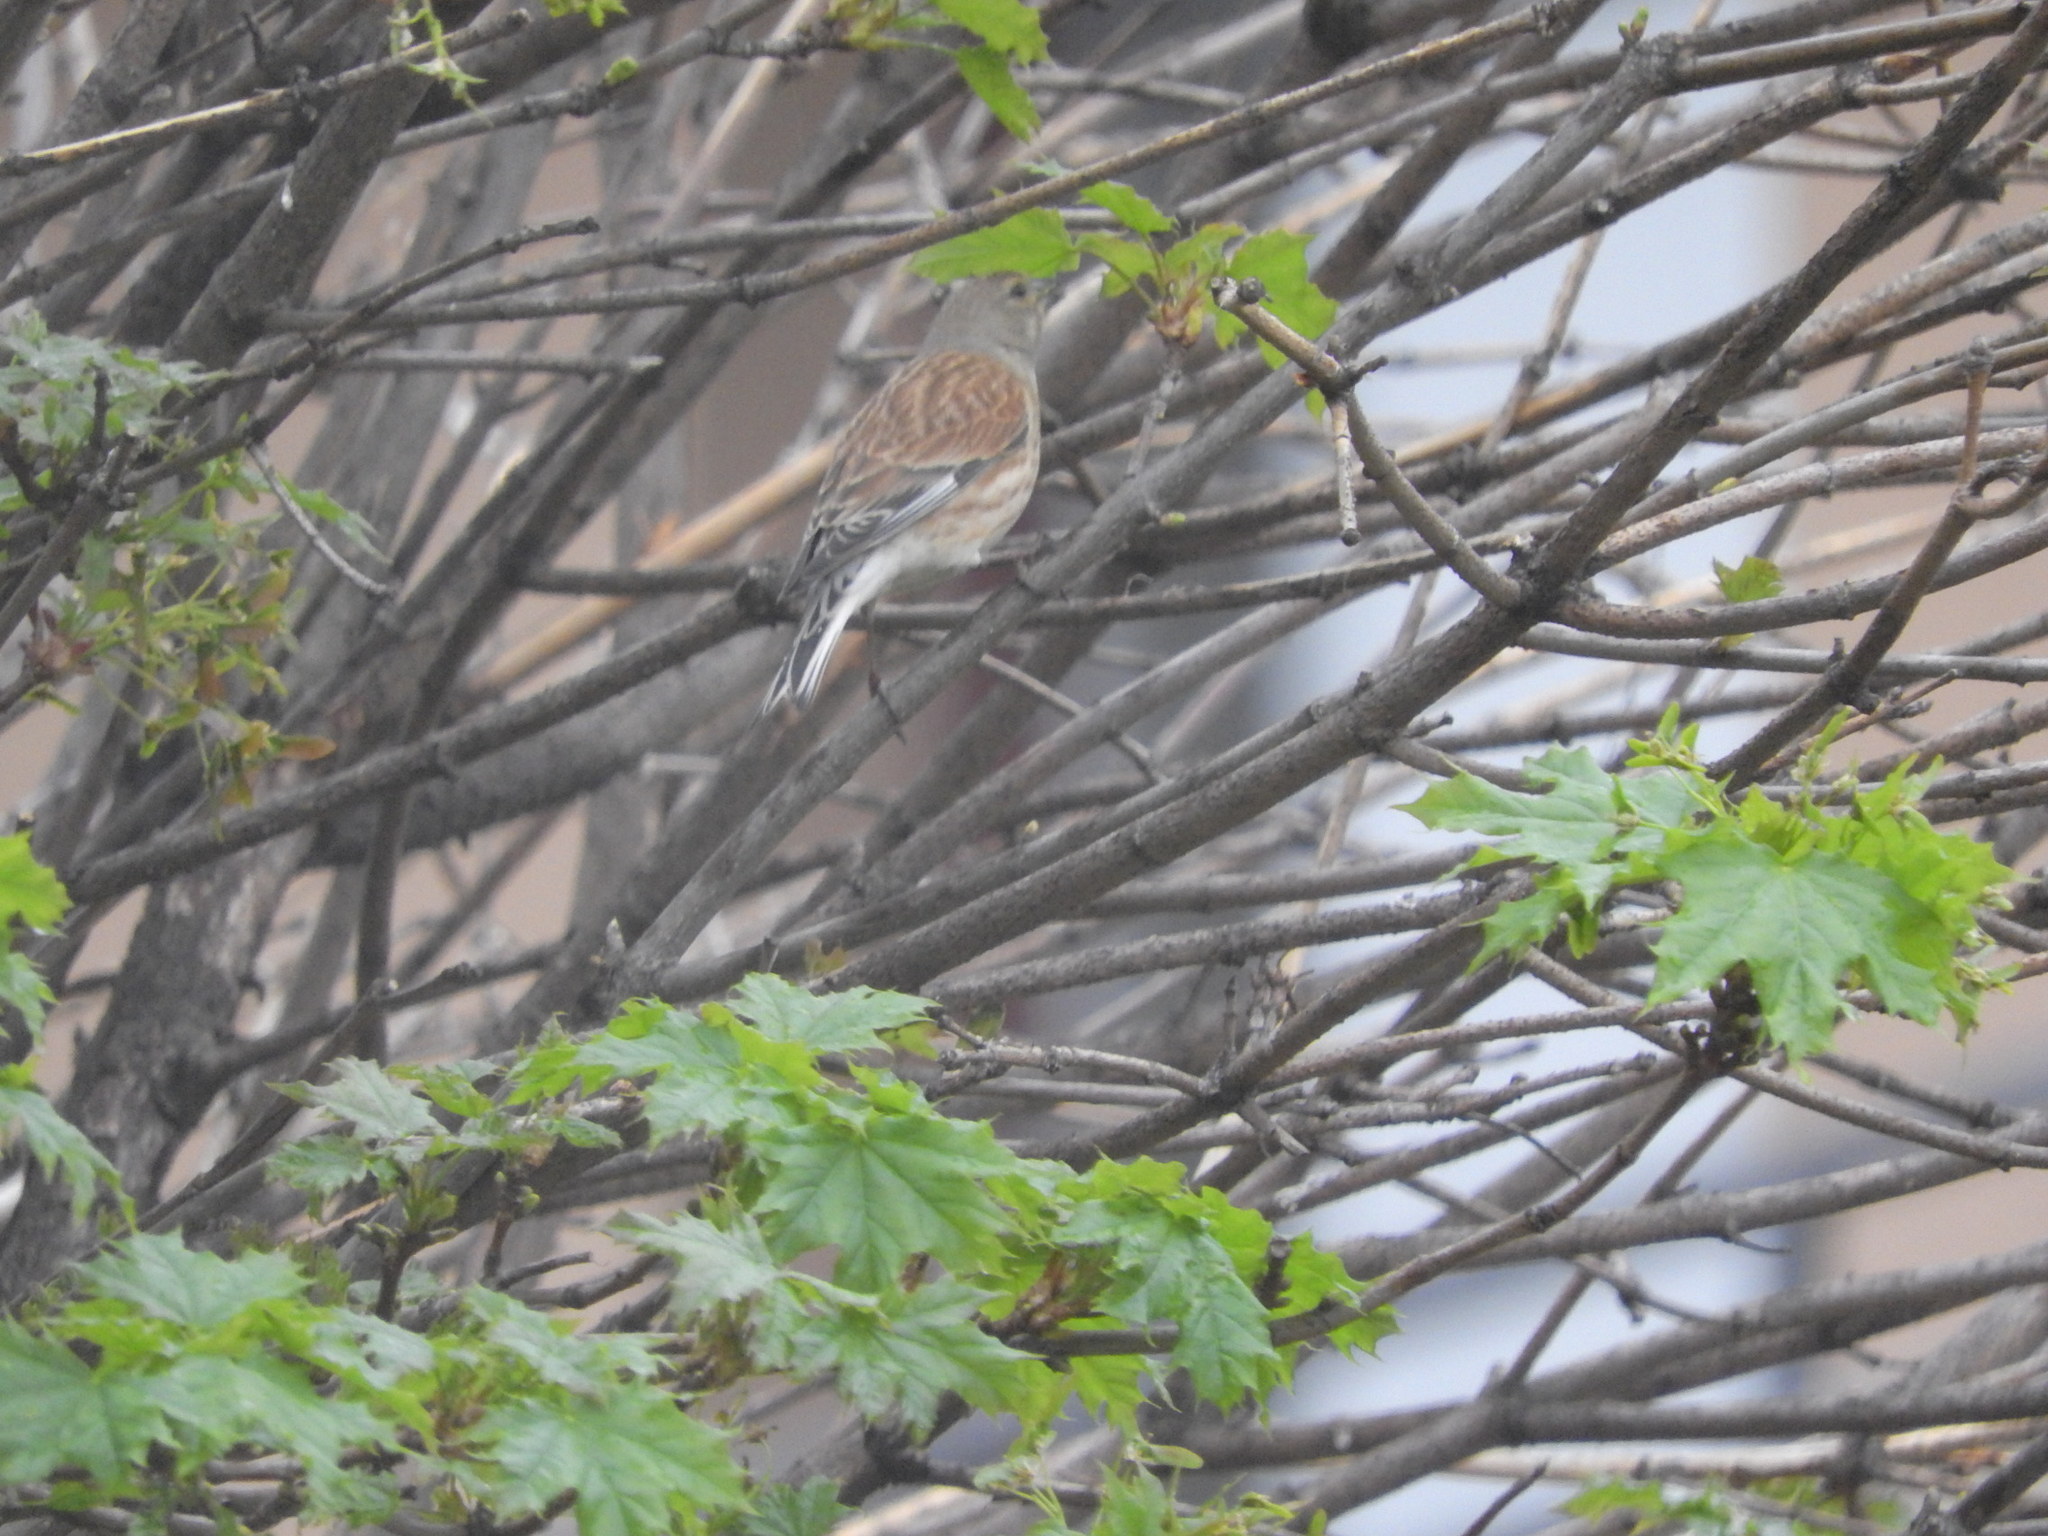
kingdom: Animalia
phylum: Chordata
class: Aves
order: Passeriformes
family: Fringillidae
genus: Linaria
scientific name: Linaria cannabina
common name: Common linnet
